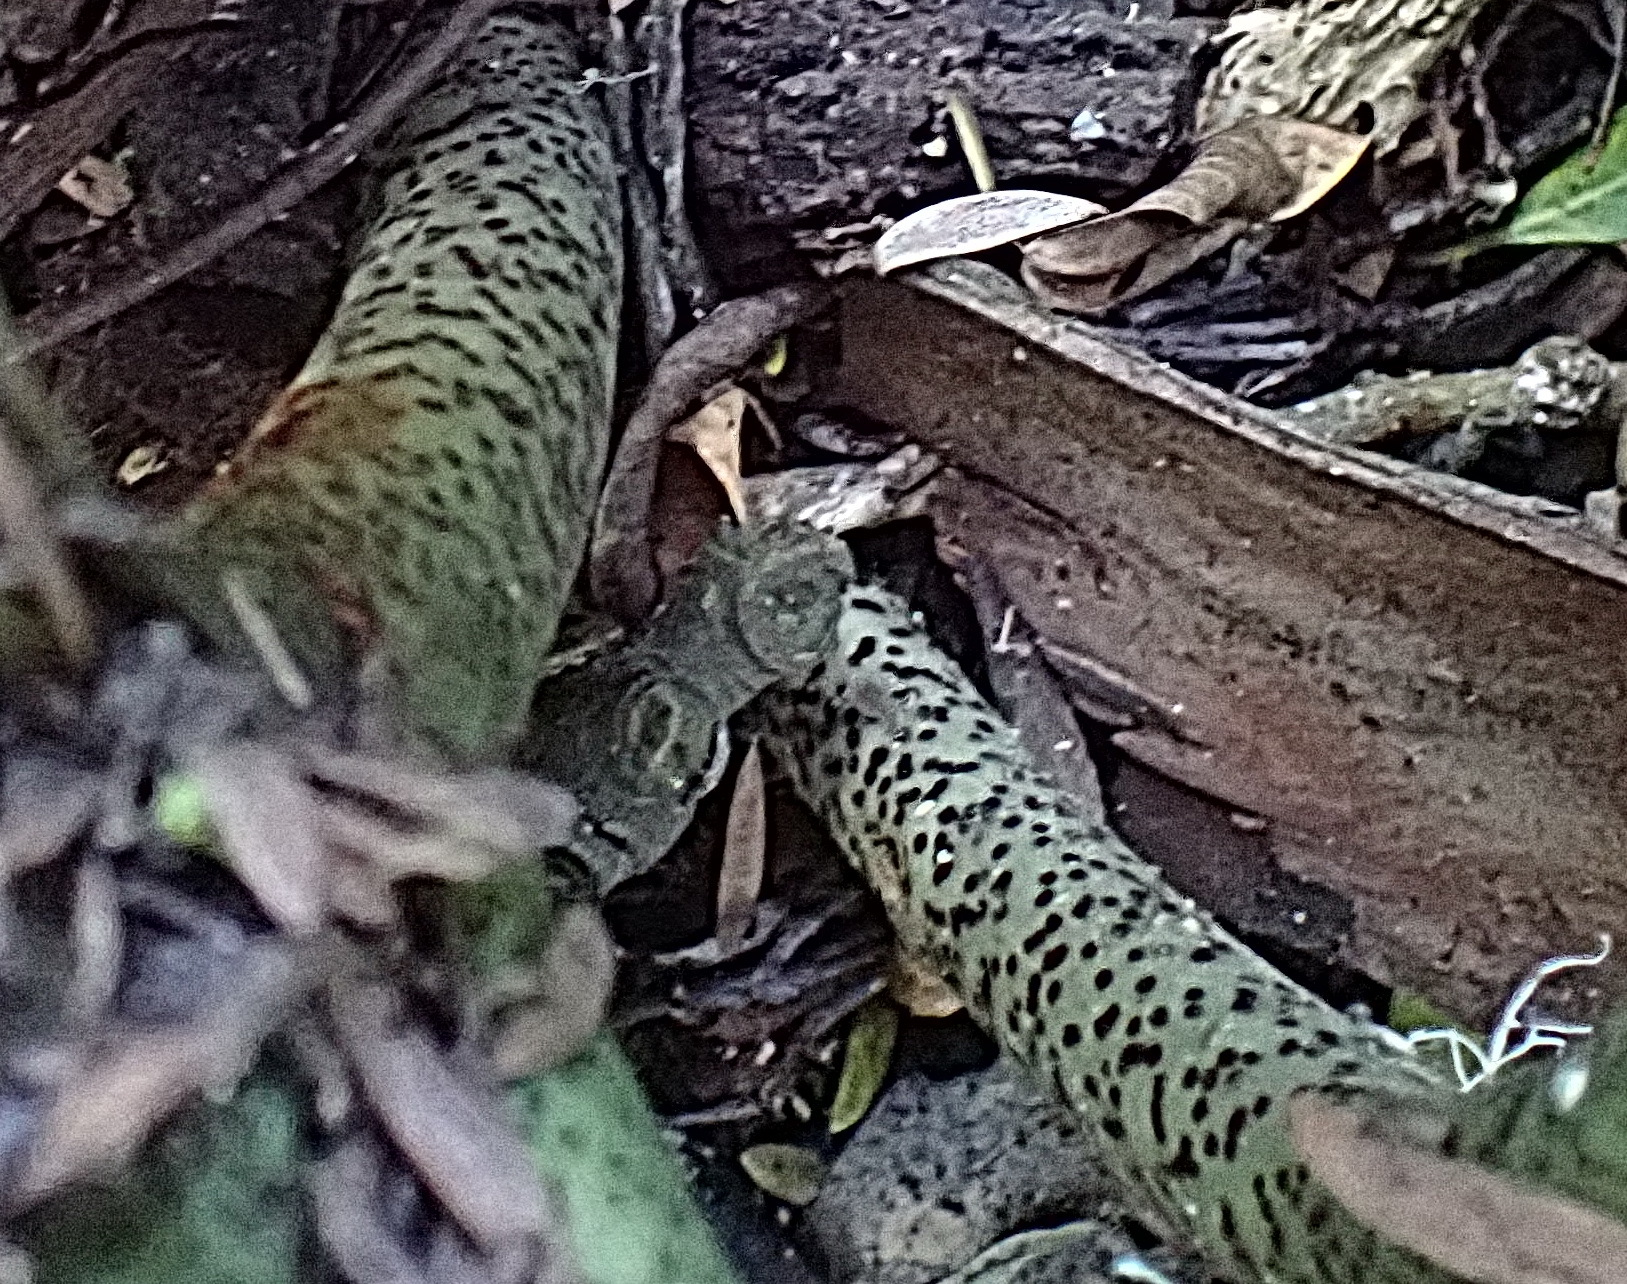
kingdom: Plantae
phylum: Tracheophyta
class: Liliopsida
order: Asparagales
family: Amaryllidaceae
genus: Scadoxus
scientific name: Scadoxus puniceus
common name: Royal-paintbrush
